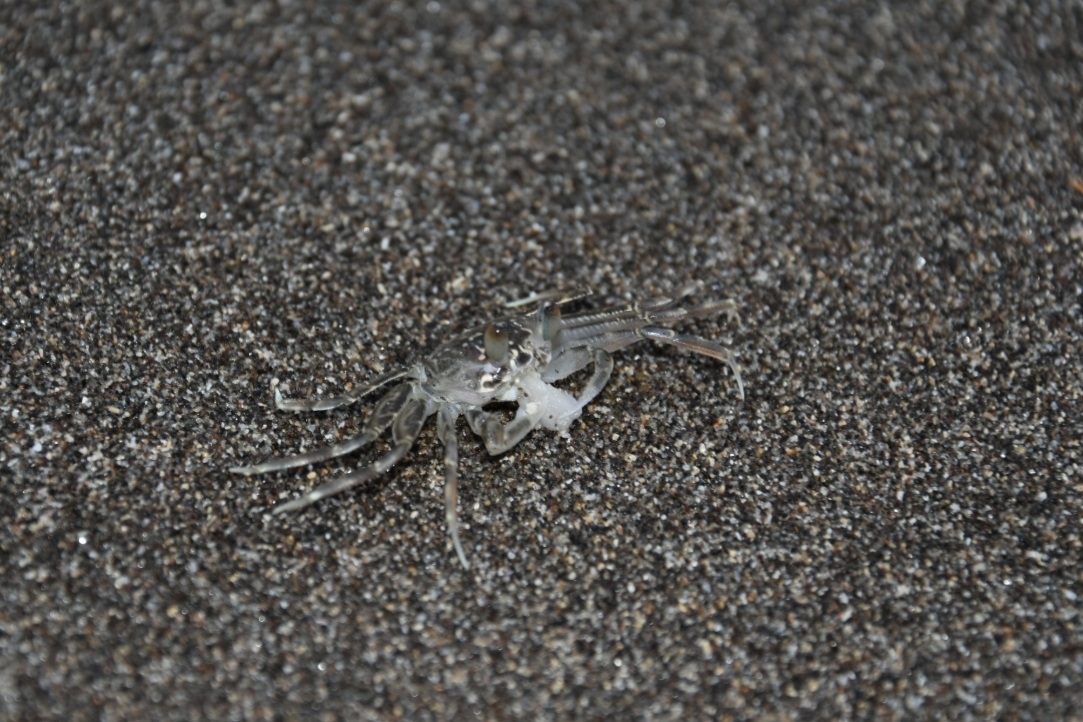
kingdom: Animalia
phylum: Arthropoda
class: Malacostraca
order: Decapoda
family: Ocypodidae
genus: Ocypode
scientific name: Ocypode kuhlii
